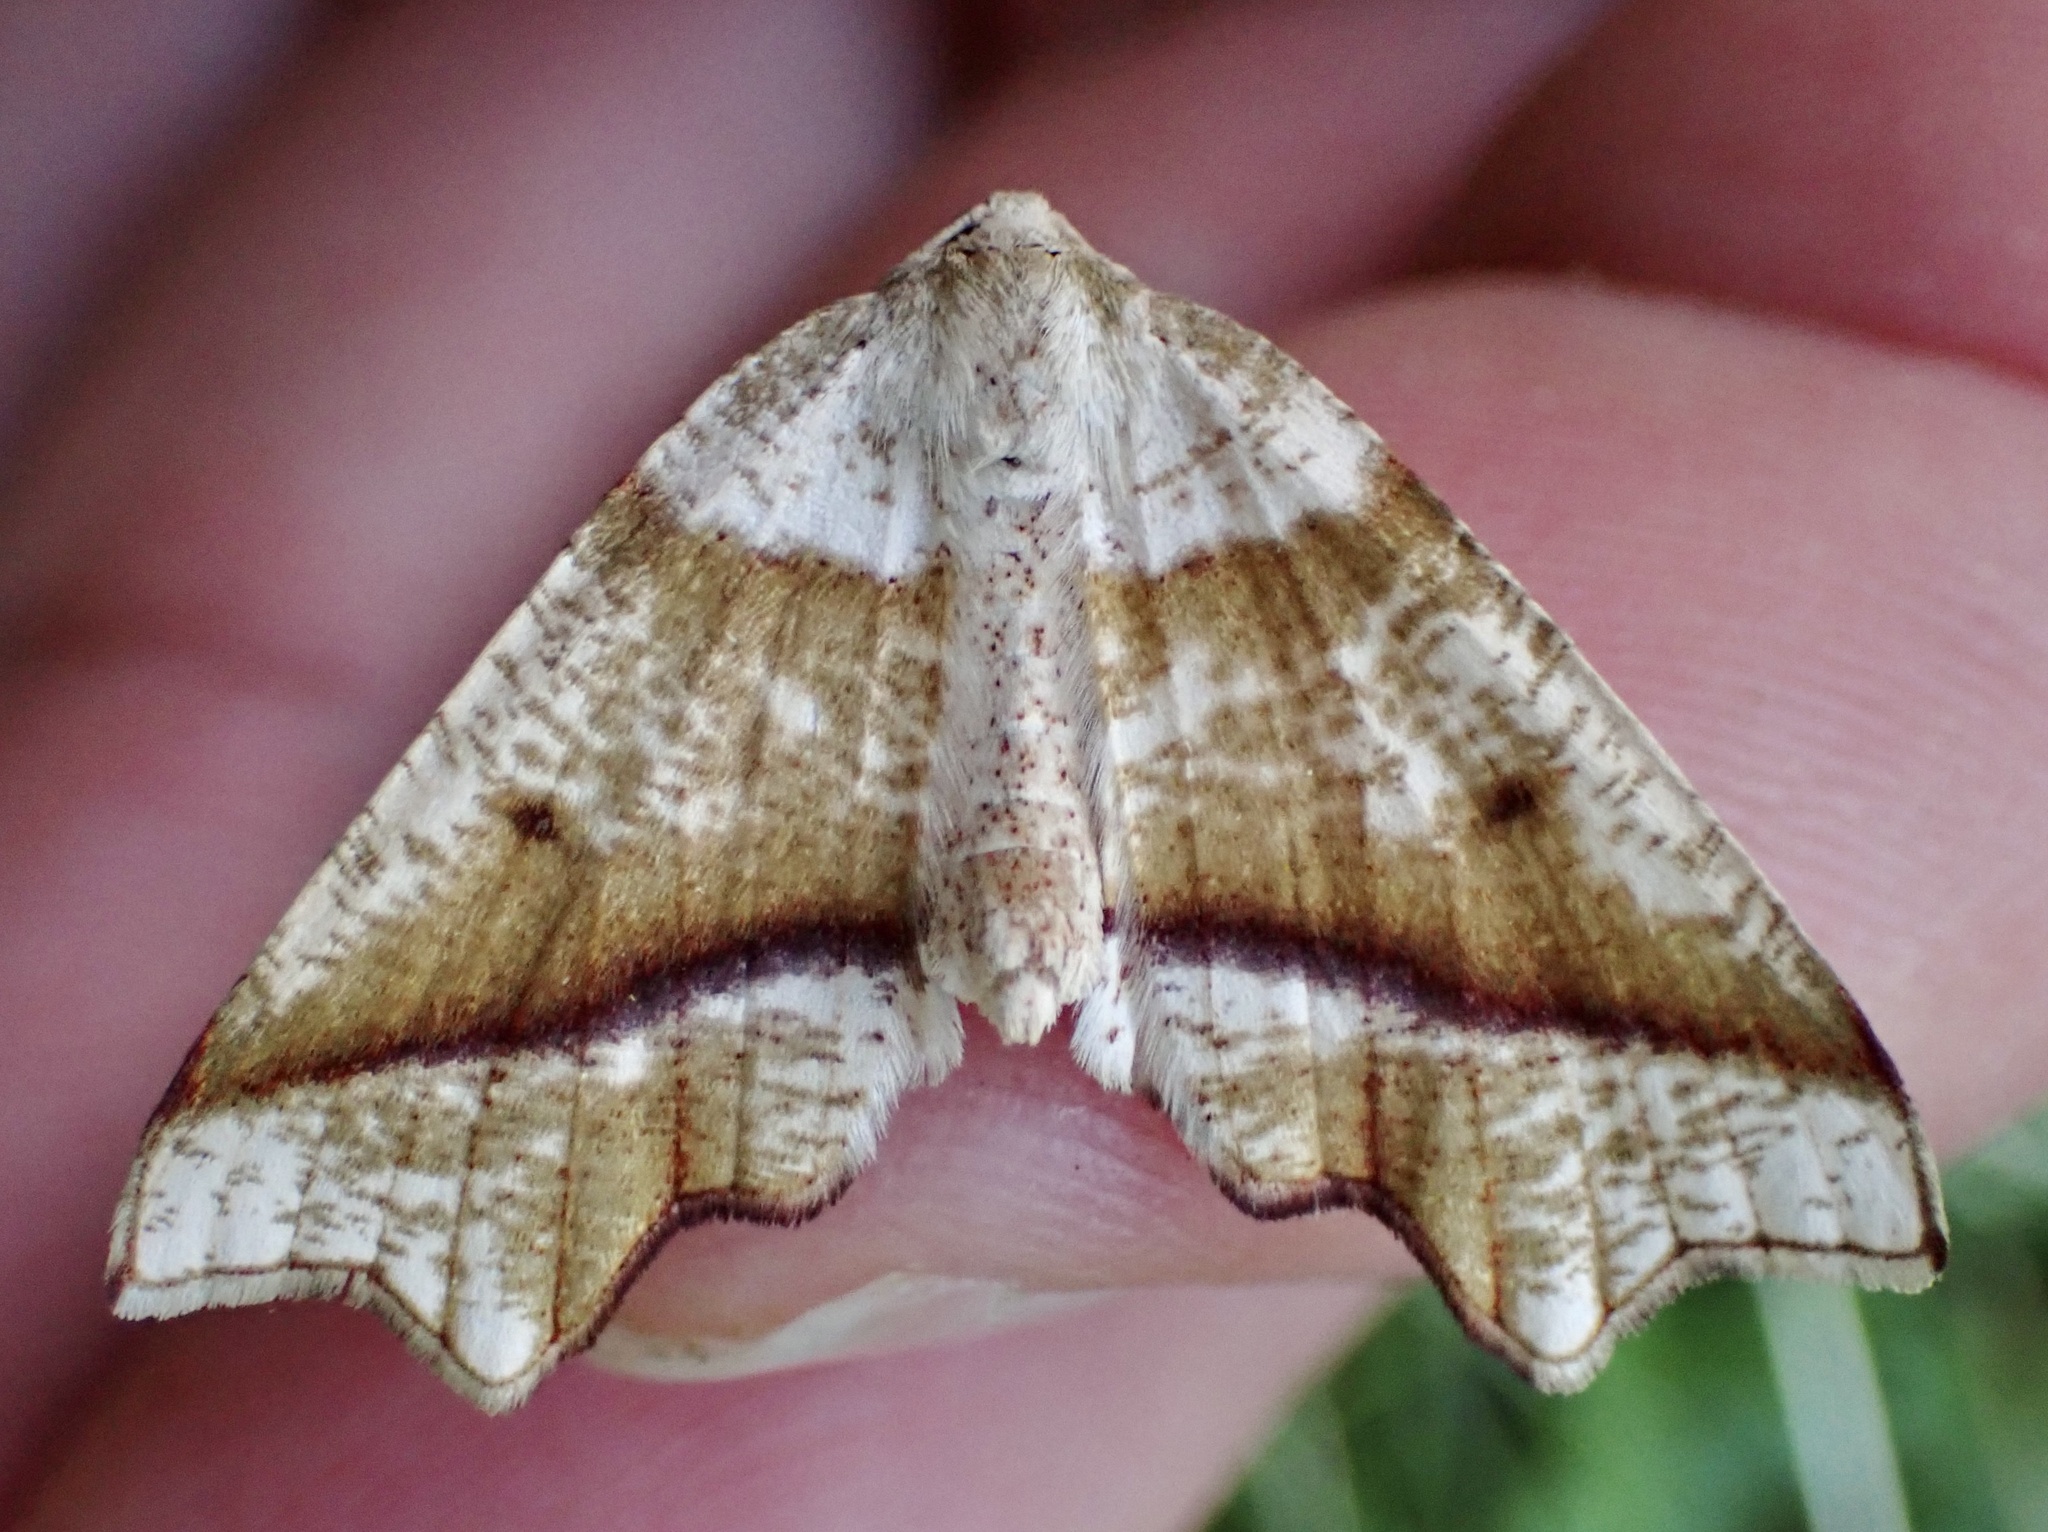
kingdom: Animalia
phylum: Arthropoda
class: Insecta
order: Lepidoptera
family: Geometridae
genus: Plagodis
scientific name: Plagodis alcoolaria
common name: Hollow-spotted plagodis
